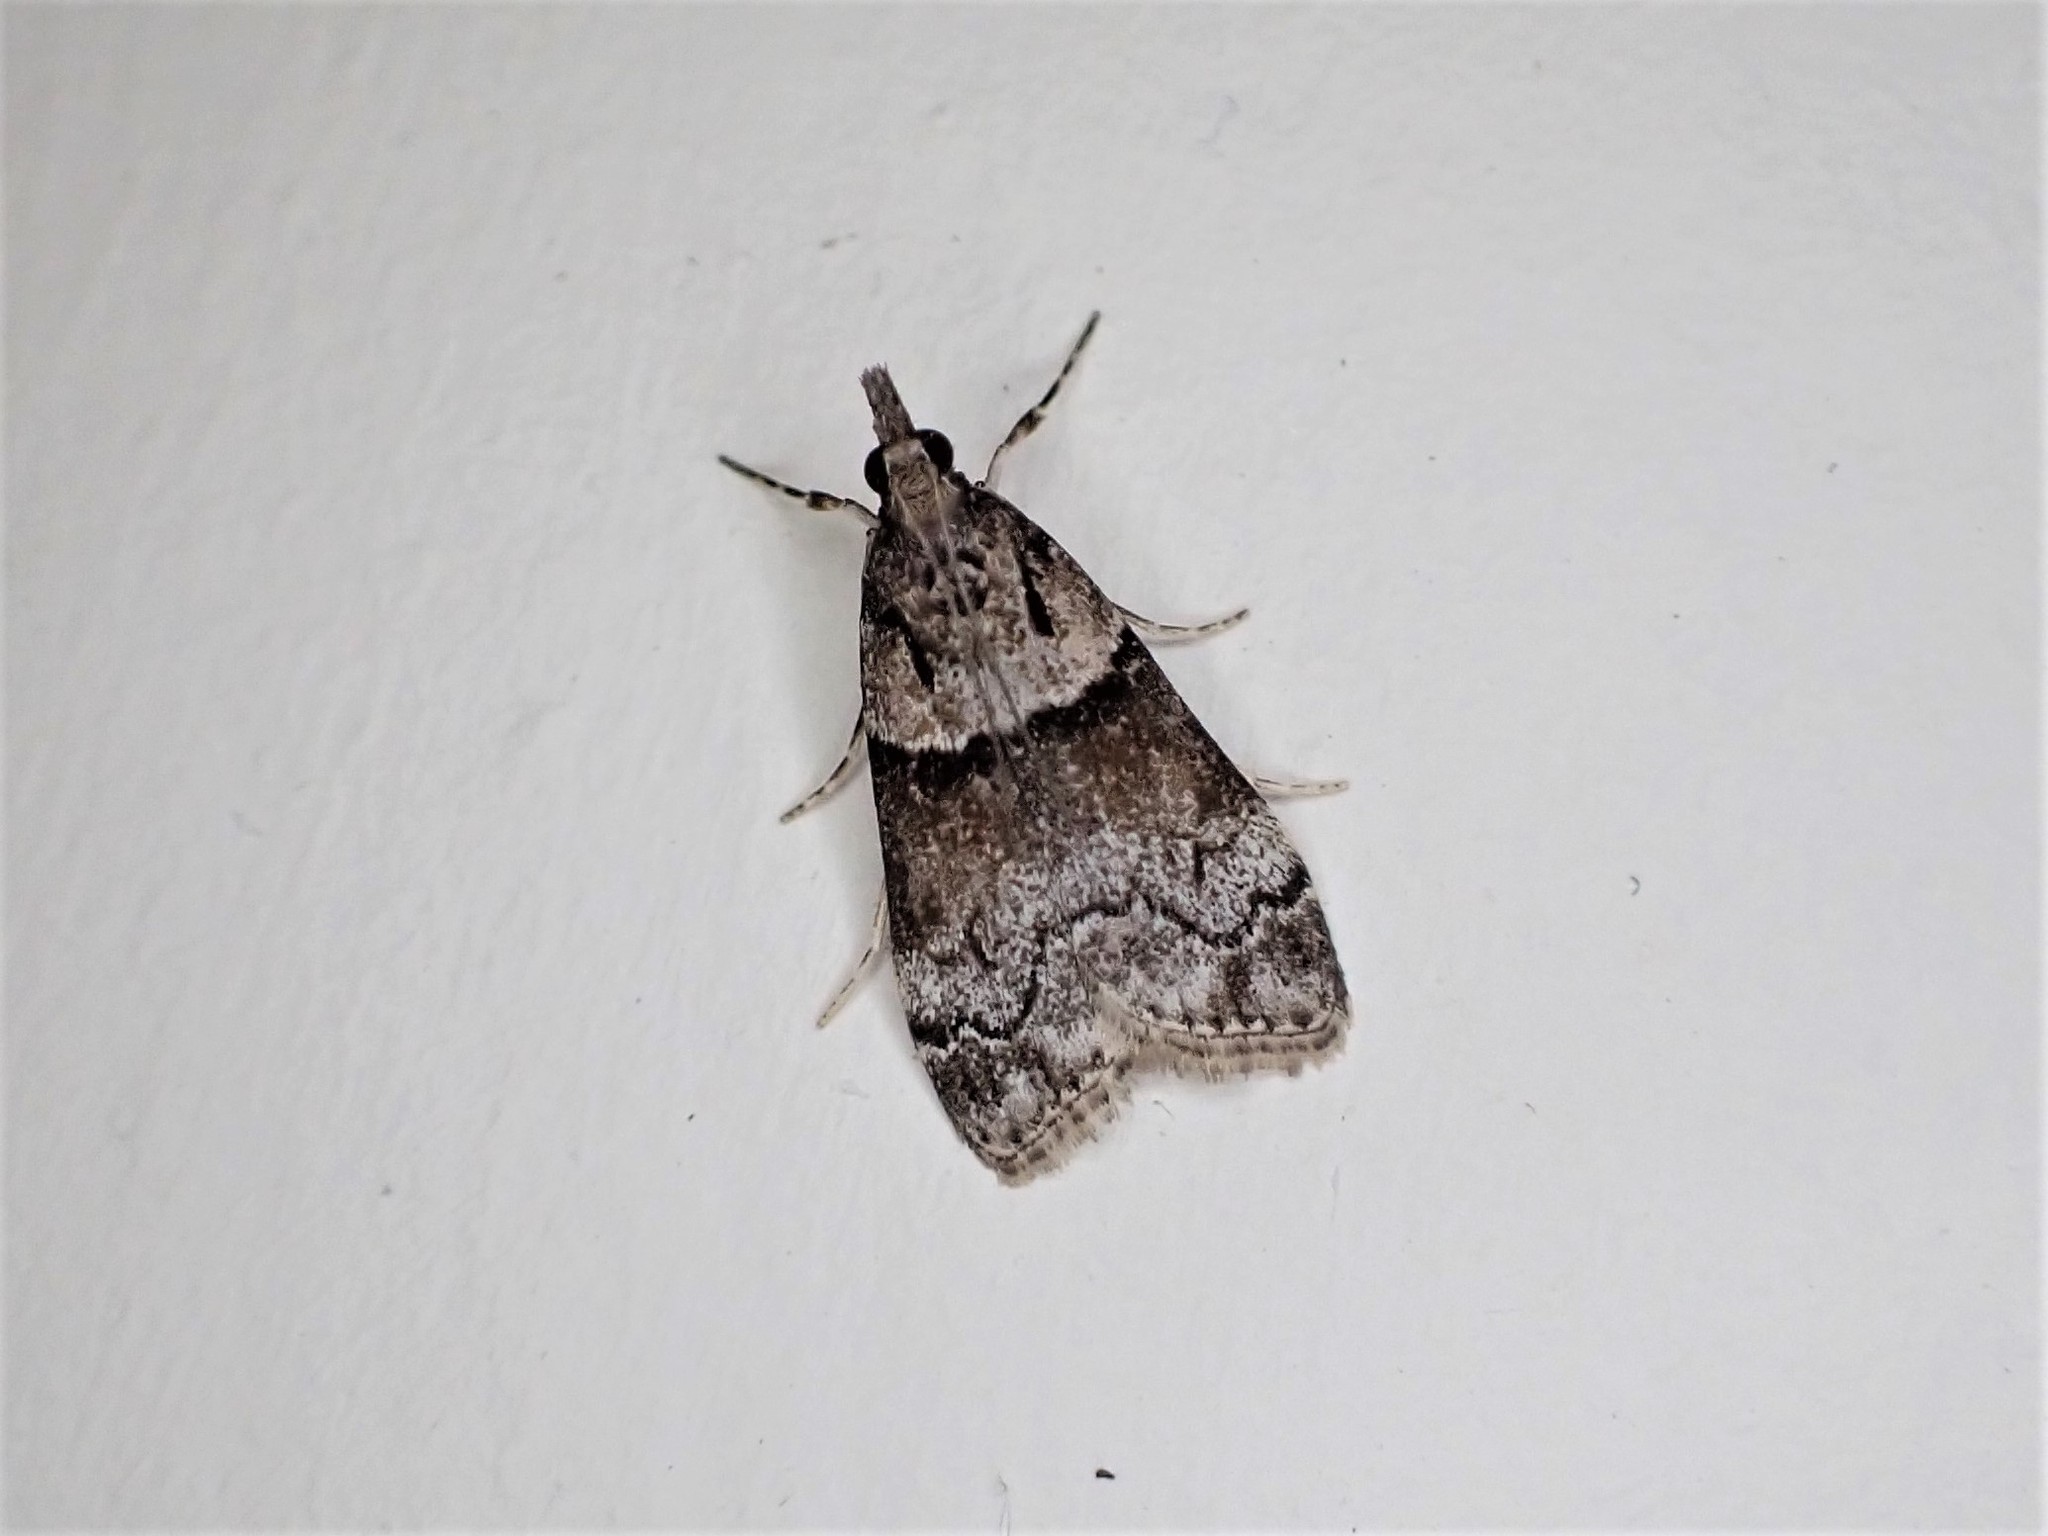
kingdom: Animalia
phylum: Arthropoda
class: Insecta
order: Lepidoptera
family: Crambidae
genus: Eudonia
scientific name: Eudonia colpota
